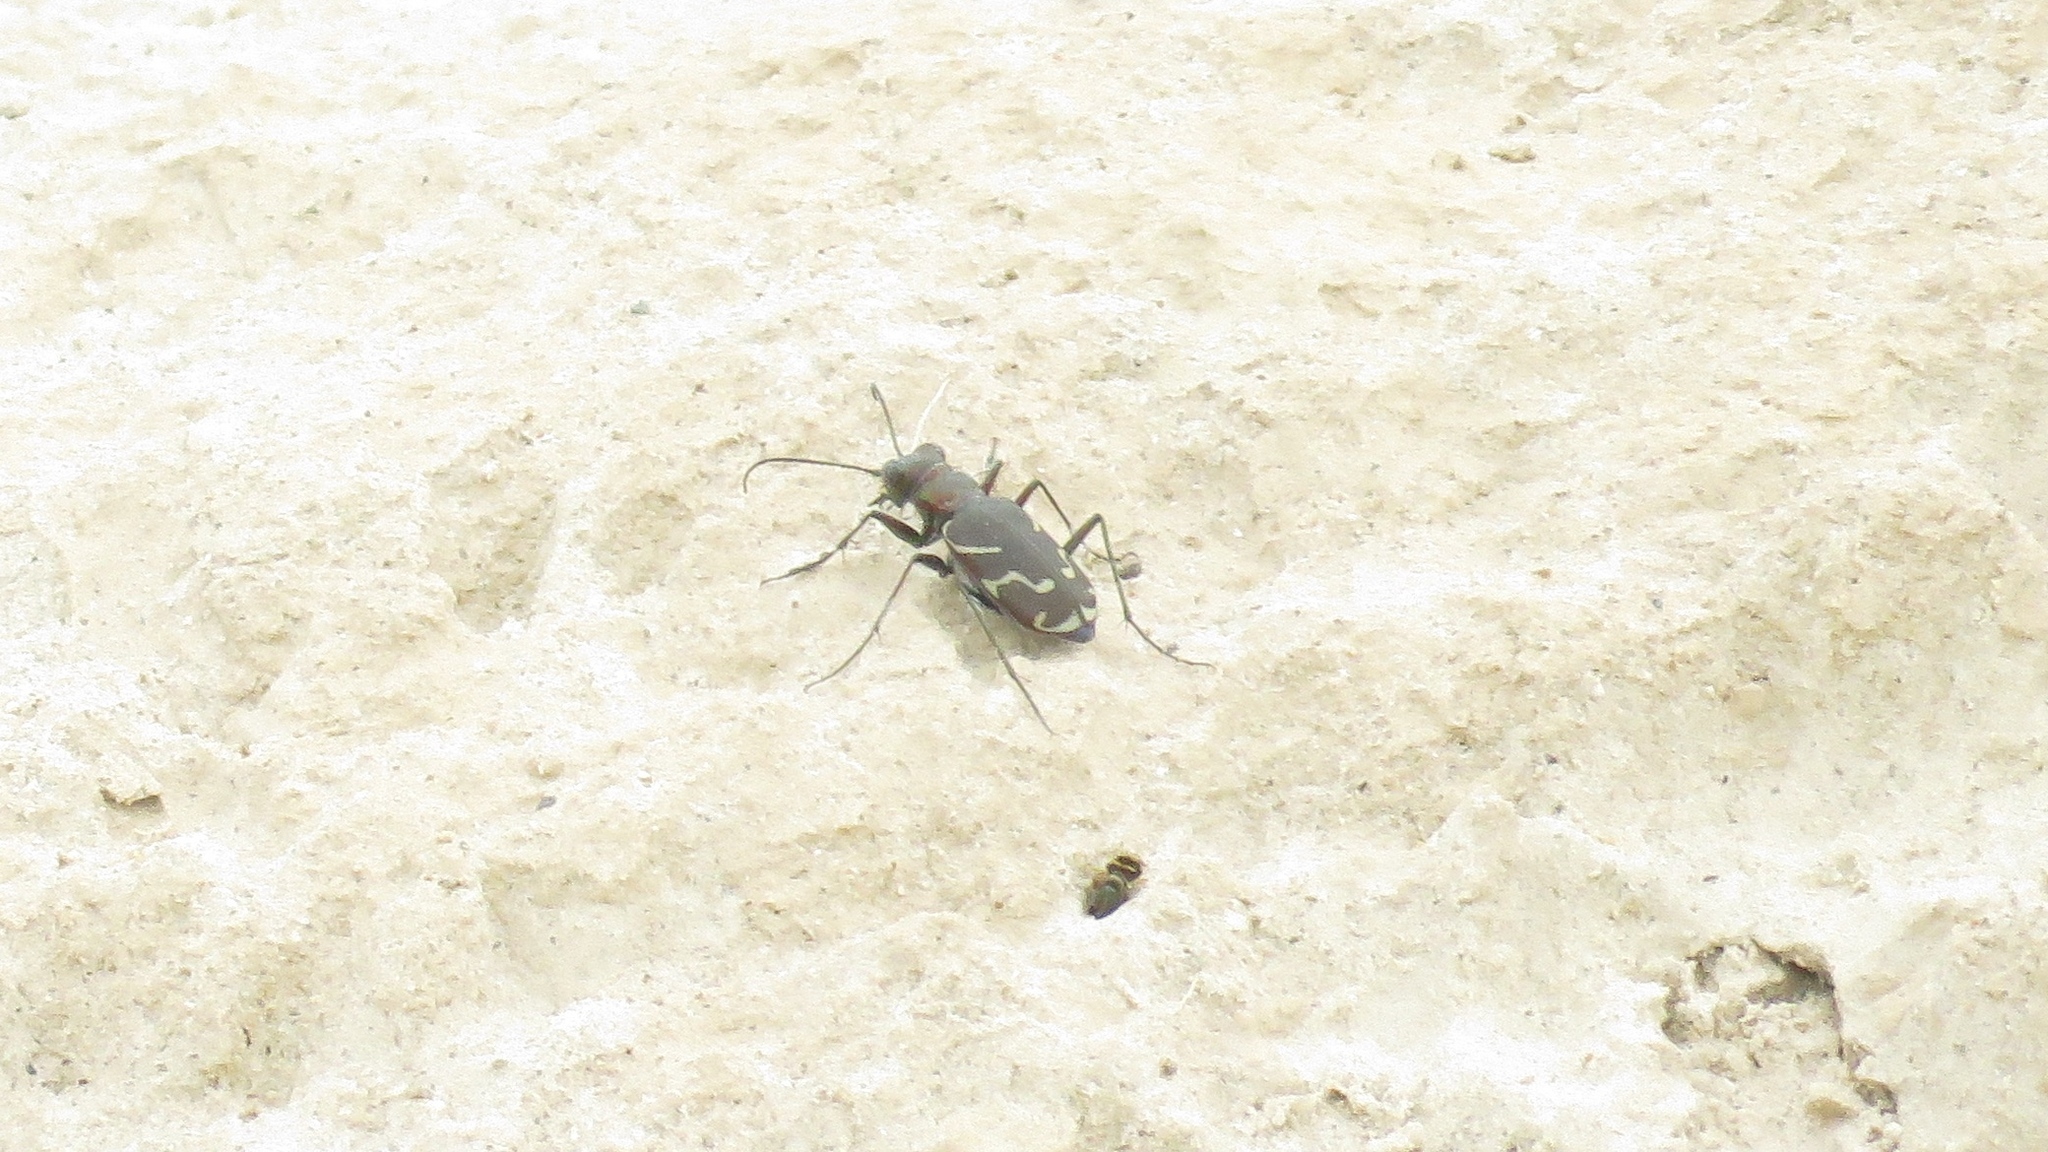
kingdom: Animalia
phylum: Arthropoda
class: Insecta
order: Coleoptera
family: Carabidae
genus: Cicindela
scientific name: Cicindela tranquebarica
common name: Oblique-lined tiger beetle
